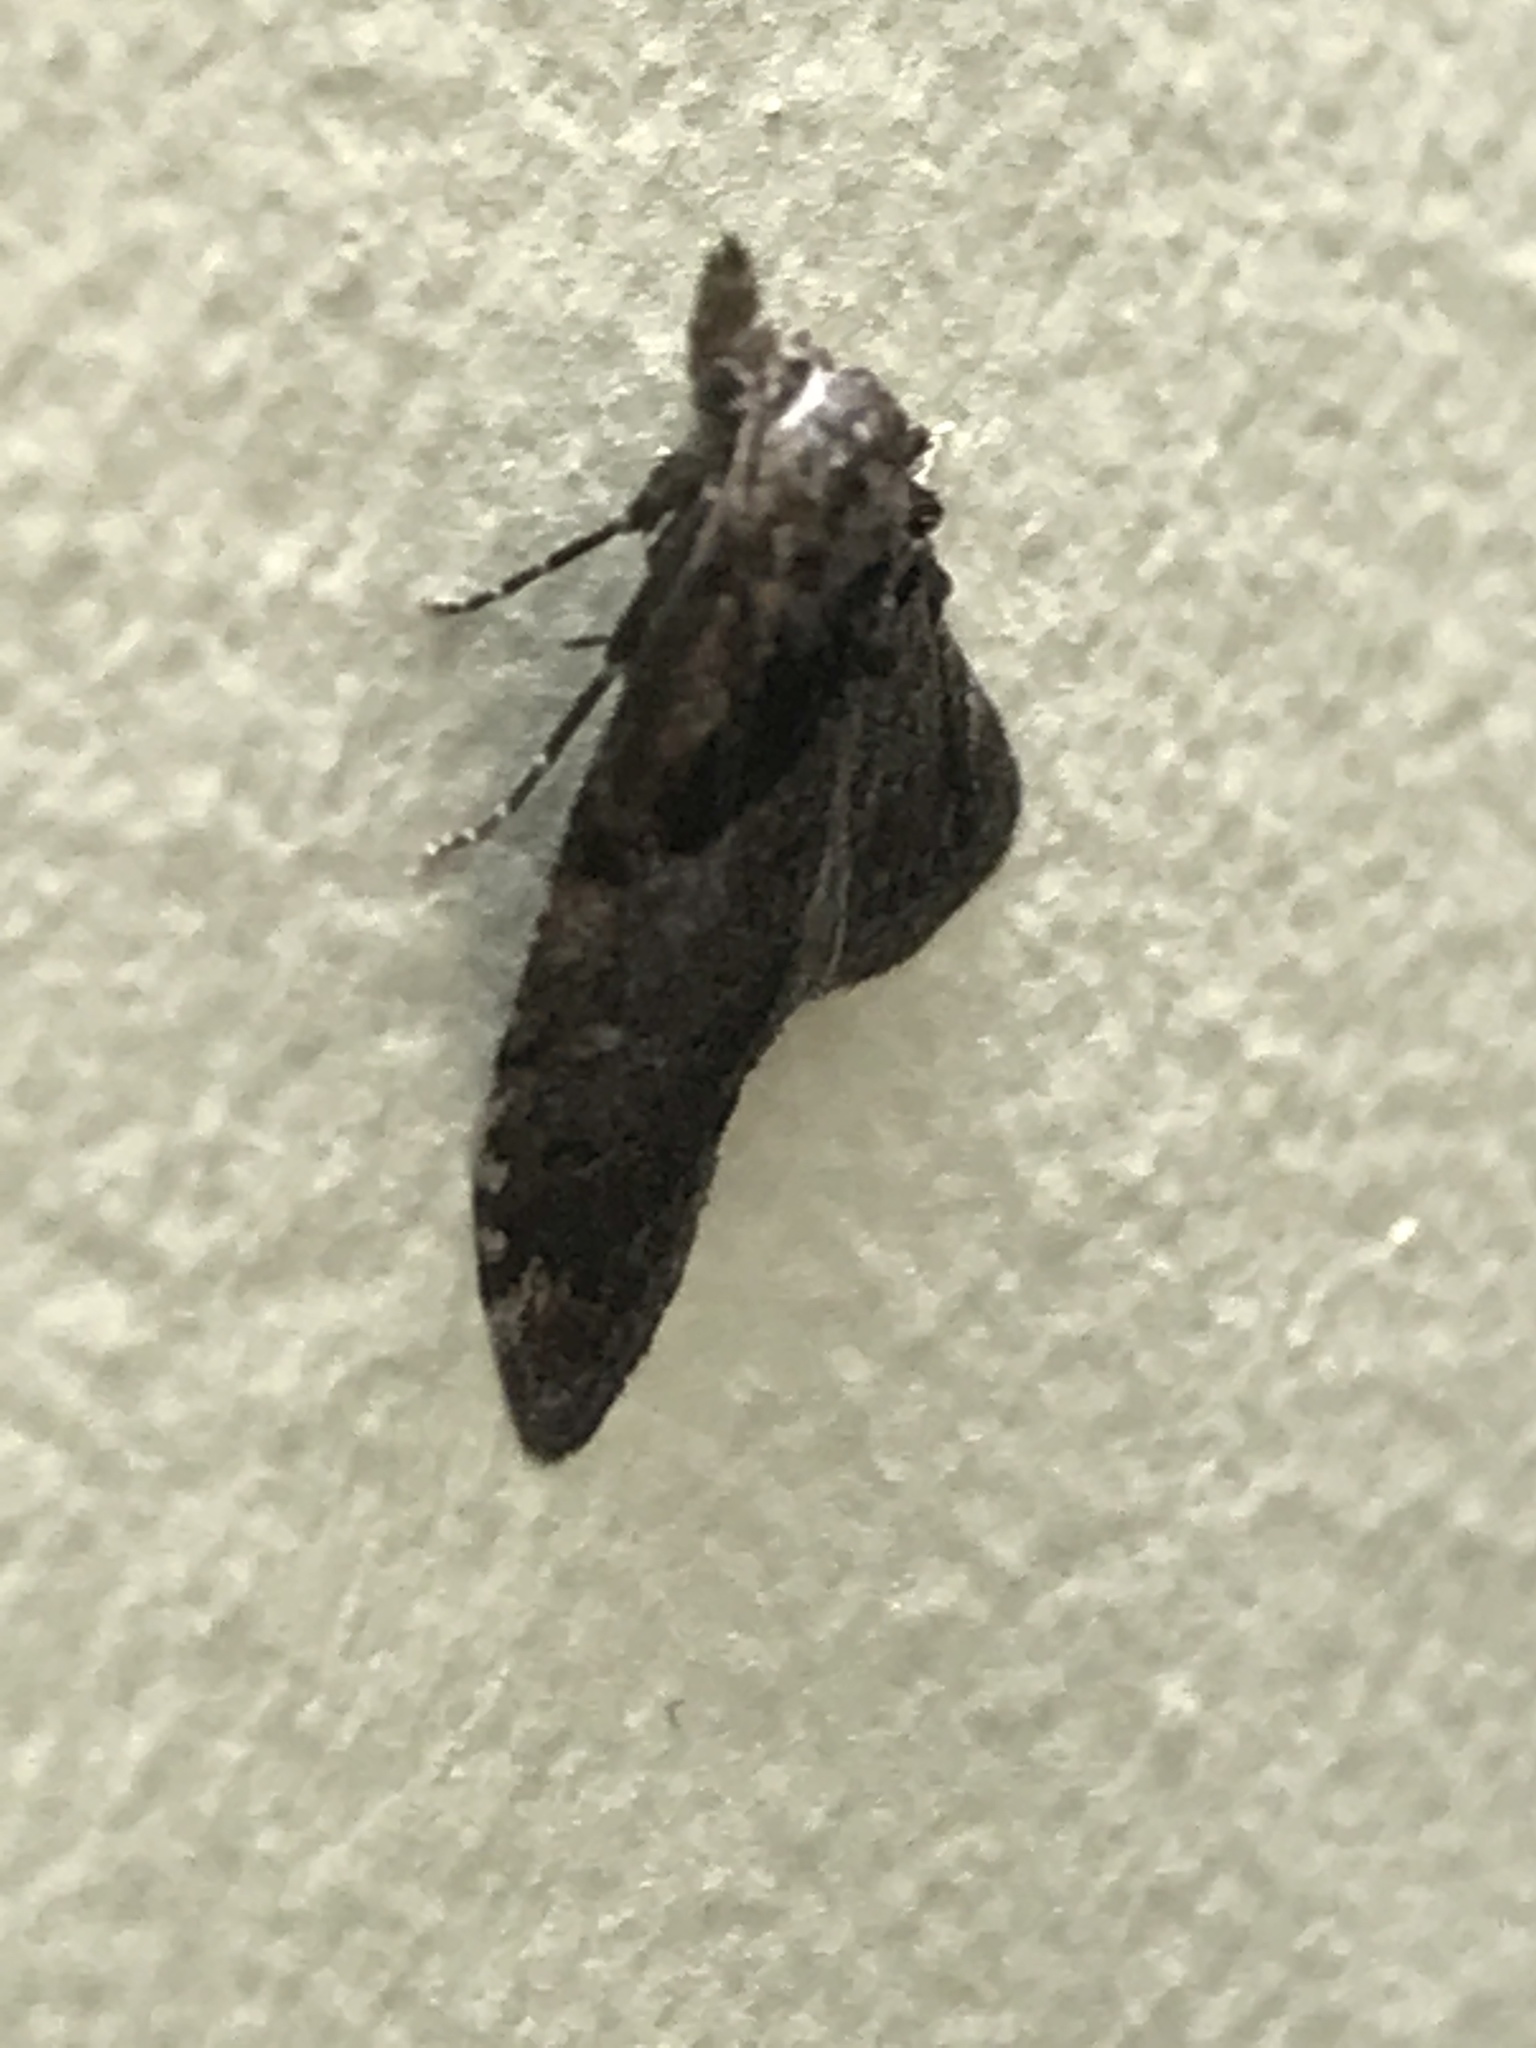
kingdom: Animalia
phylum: Arthropoda
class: Insecta
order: Lepidoptera
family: Nolidae
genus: Nola
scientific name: Nola cucullatella
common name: Short-cloaked moth
